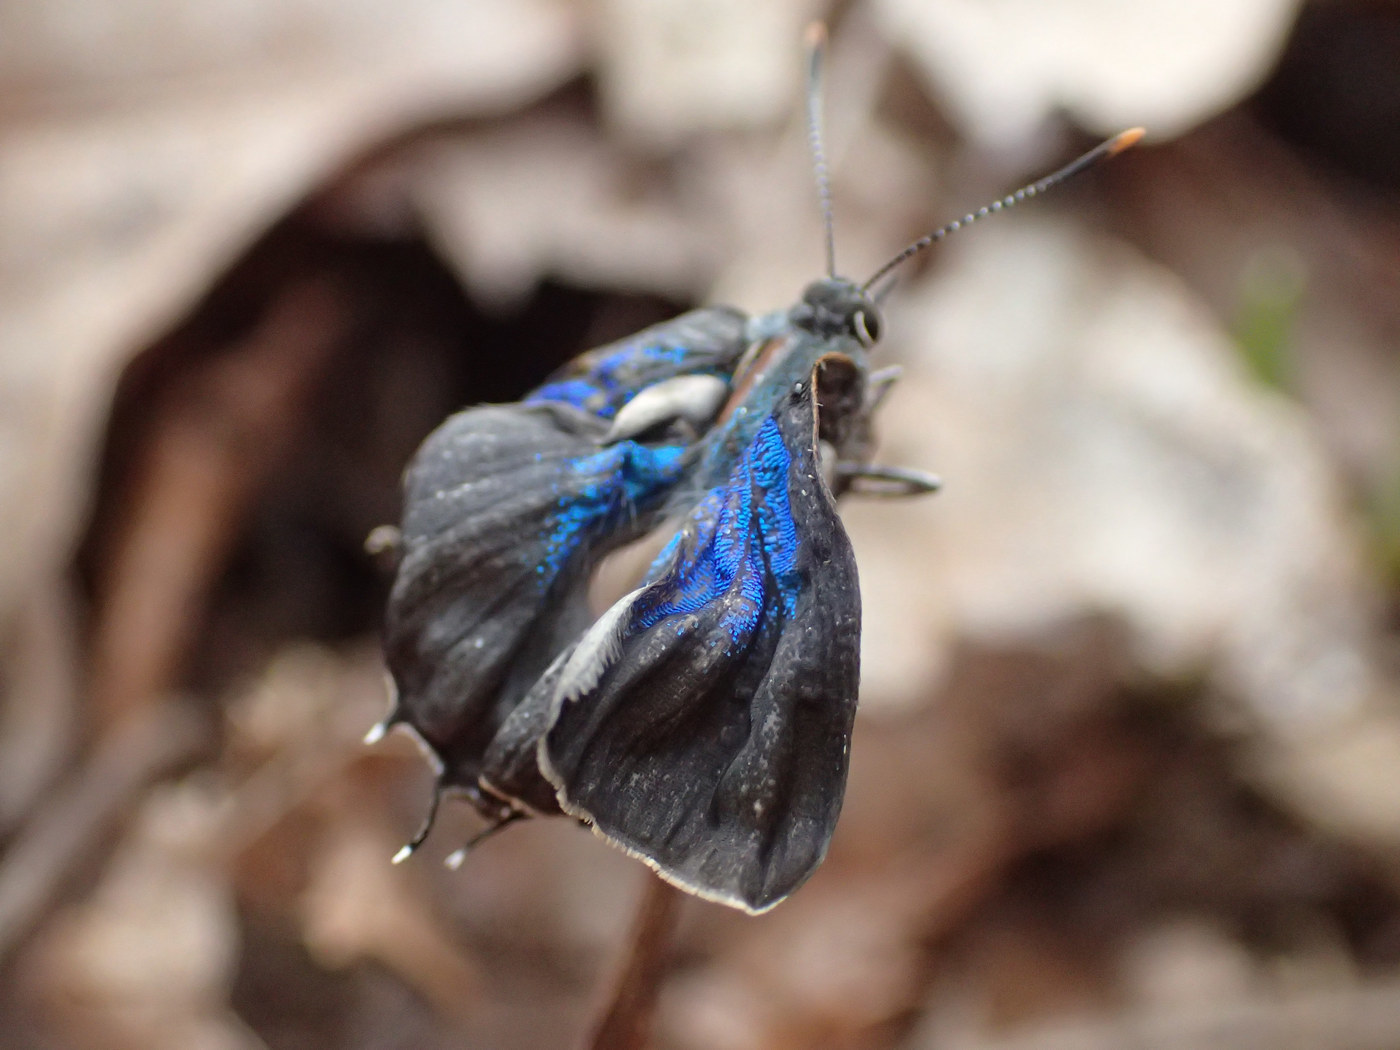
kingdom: Animalia
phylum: Arthropoda
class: Insecta
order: Lepidoptera
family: Lycaenidae
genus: Parrhasius
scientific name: Parrhasius m-album
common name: White m hairstreak
